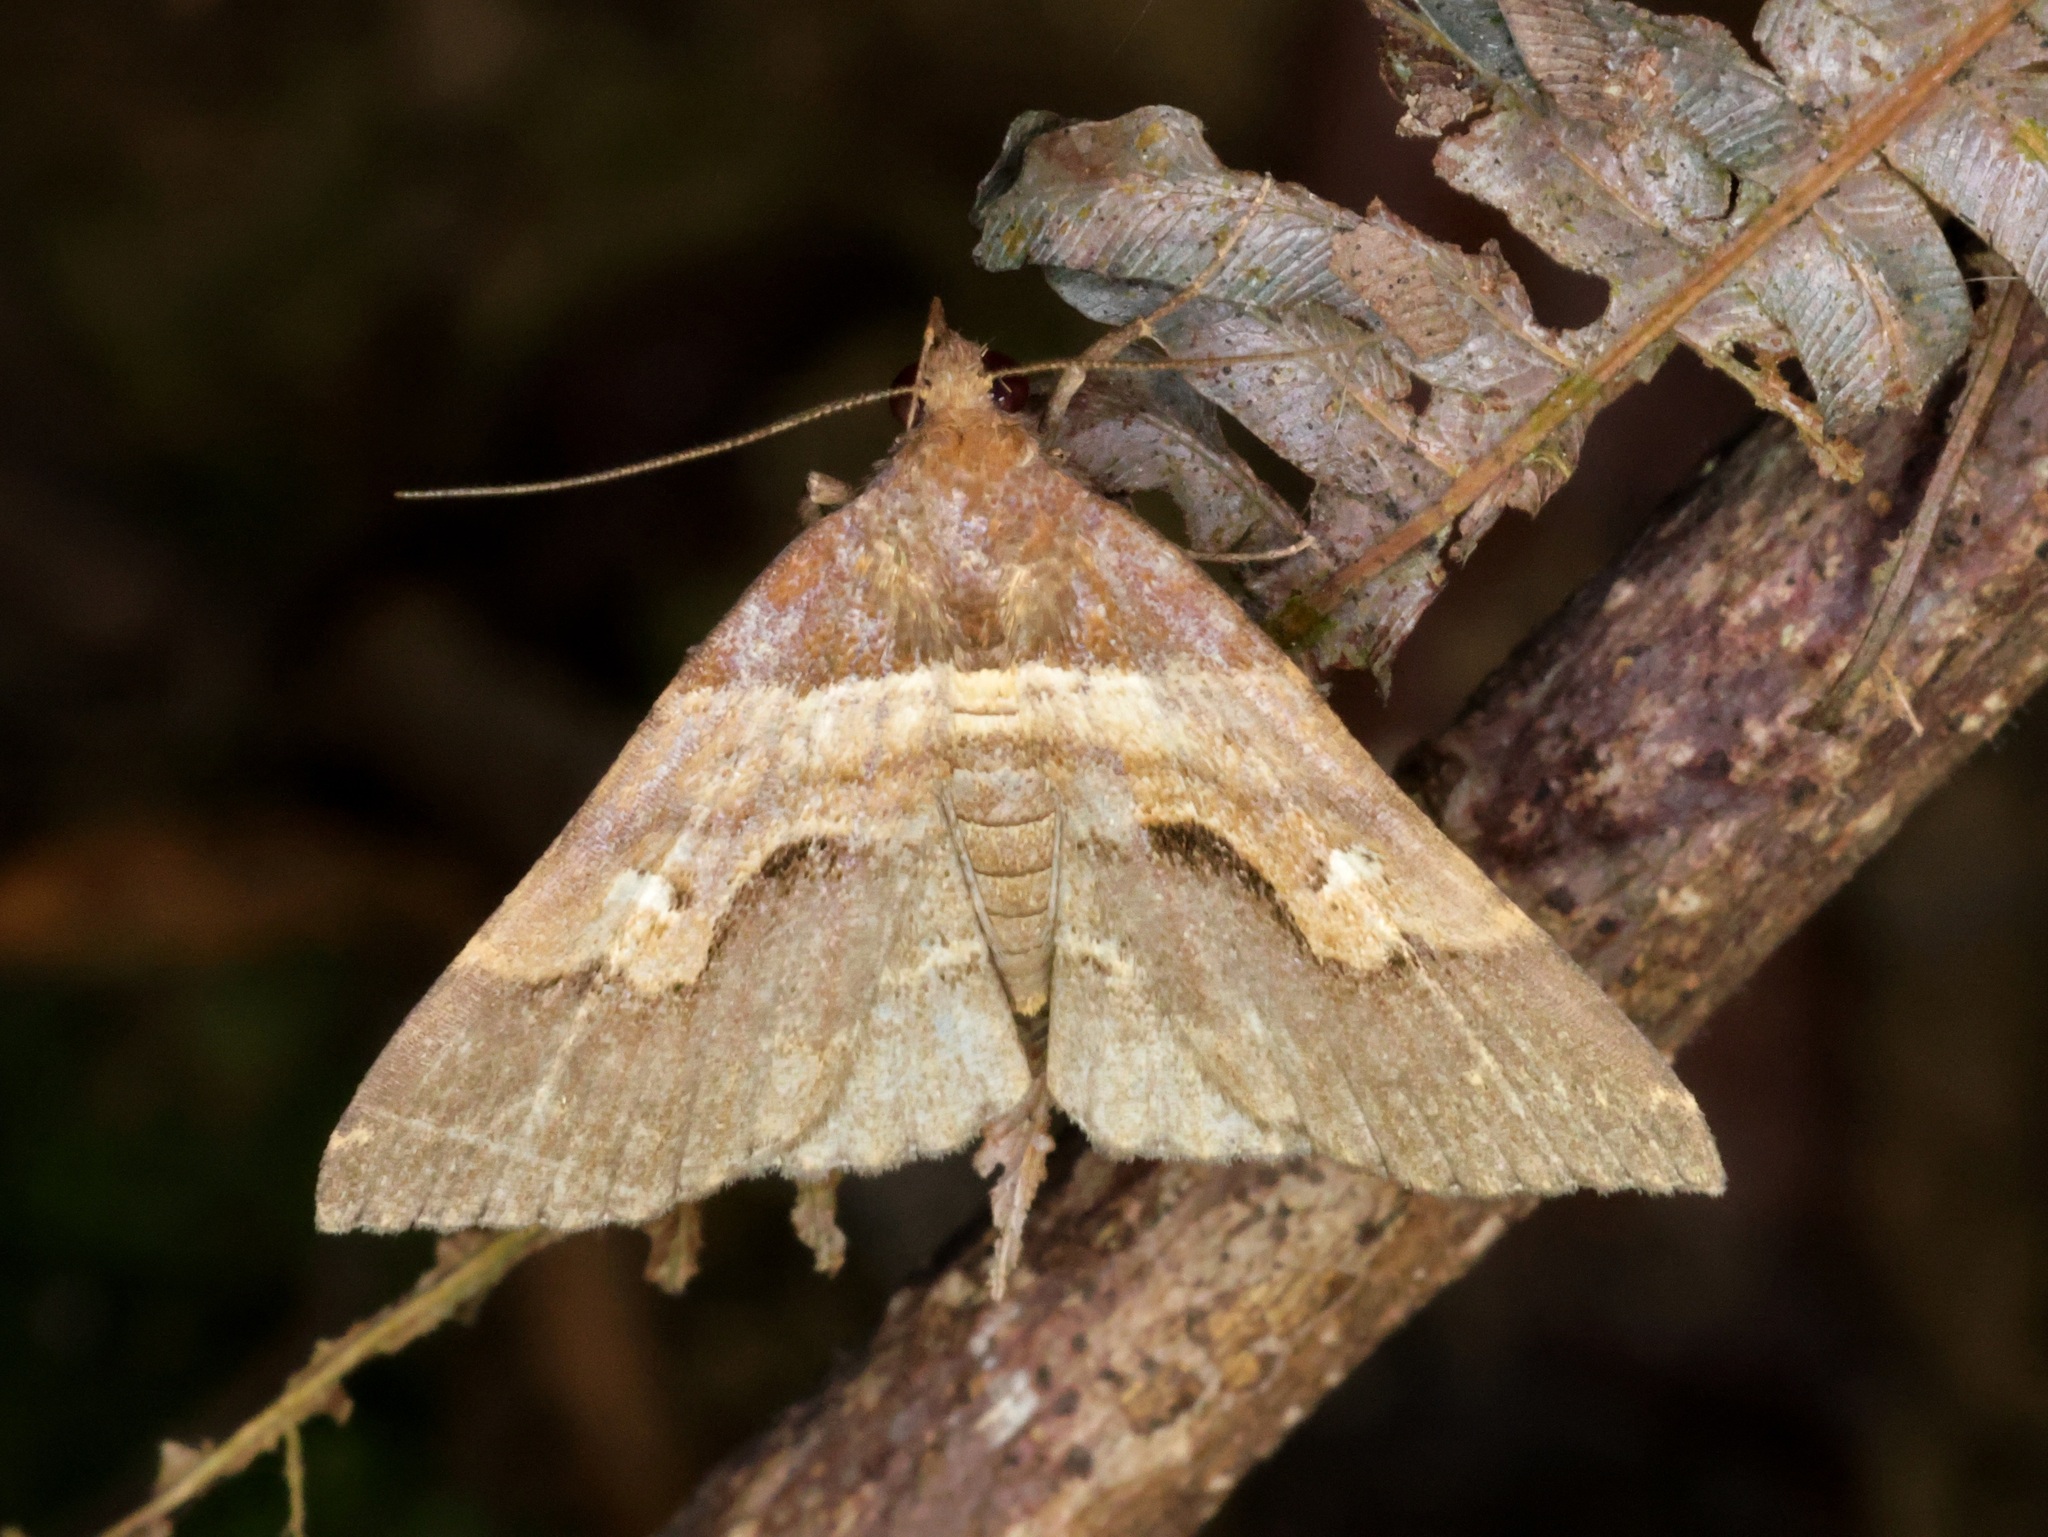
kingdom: Animalia
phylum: Arthropoda
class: Insecta
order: Lepidoptera
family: Erebidae
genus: Bertula
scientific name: Bertula retracta
